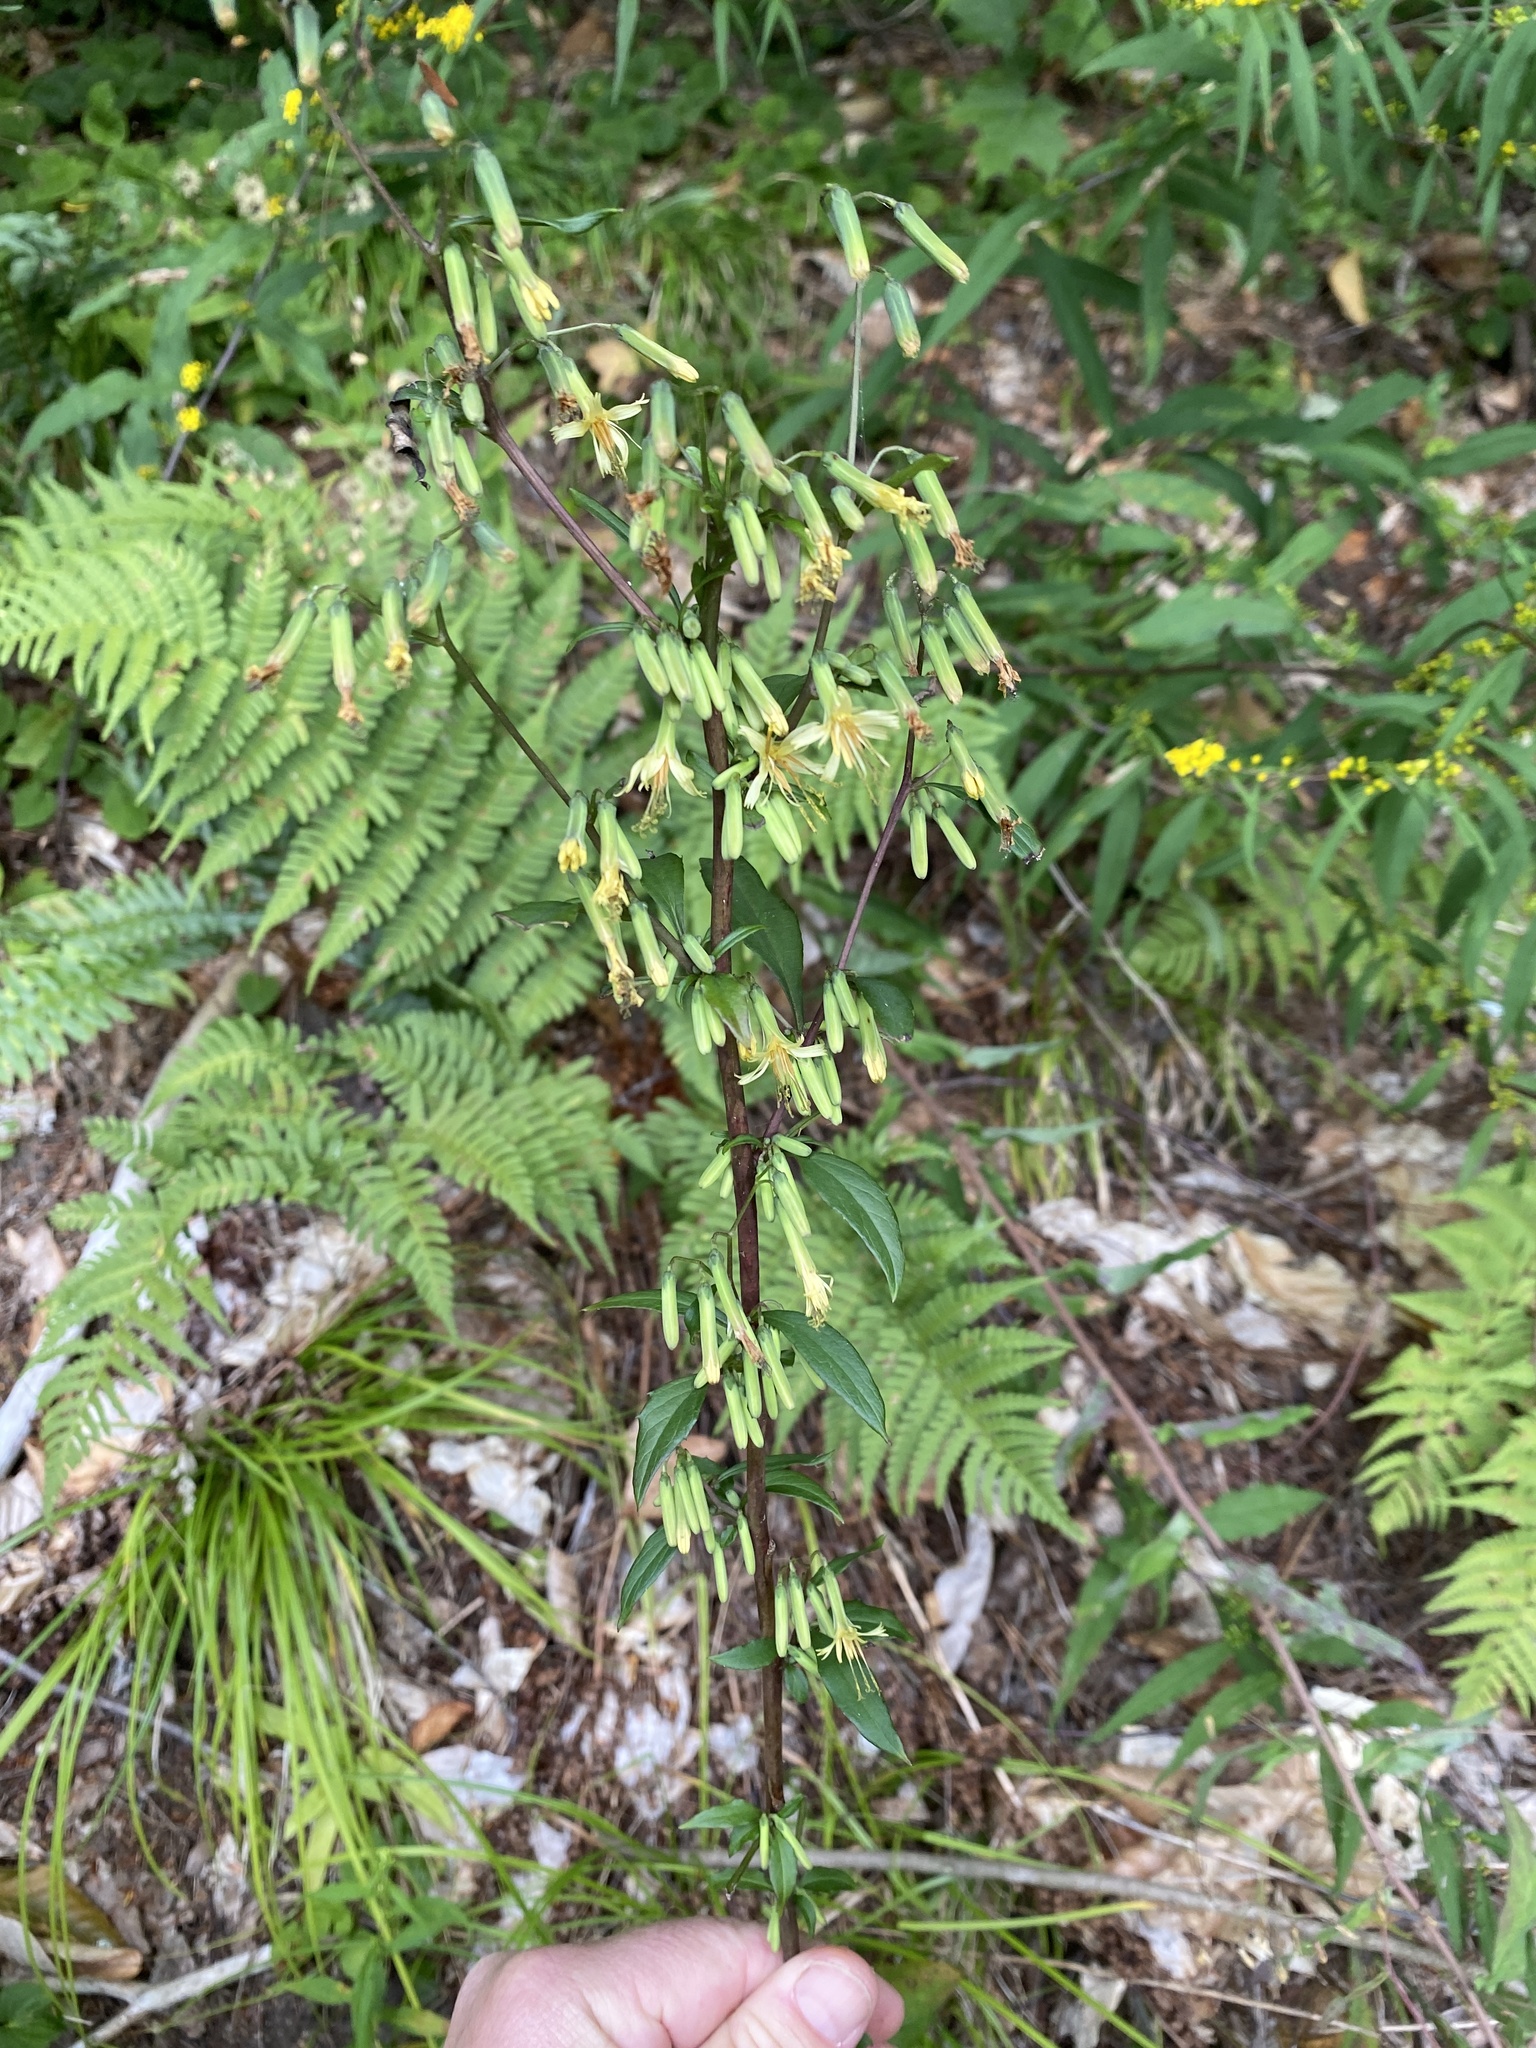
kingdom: Plantae
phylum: Tracheophyta
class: Magnoliopsida
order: Asterales
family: Asteraceae
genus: Nabalus
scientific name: Nabalus altissima
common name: Tall rattlesnakeroot
